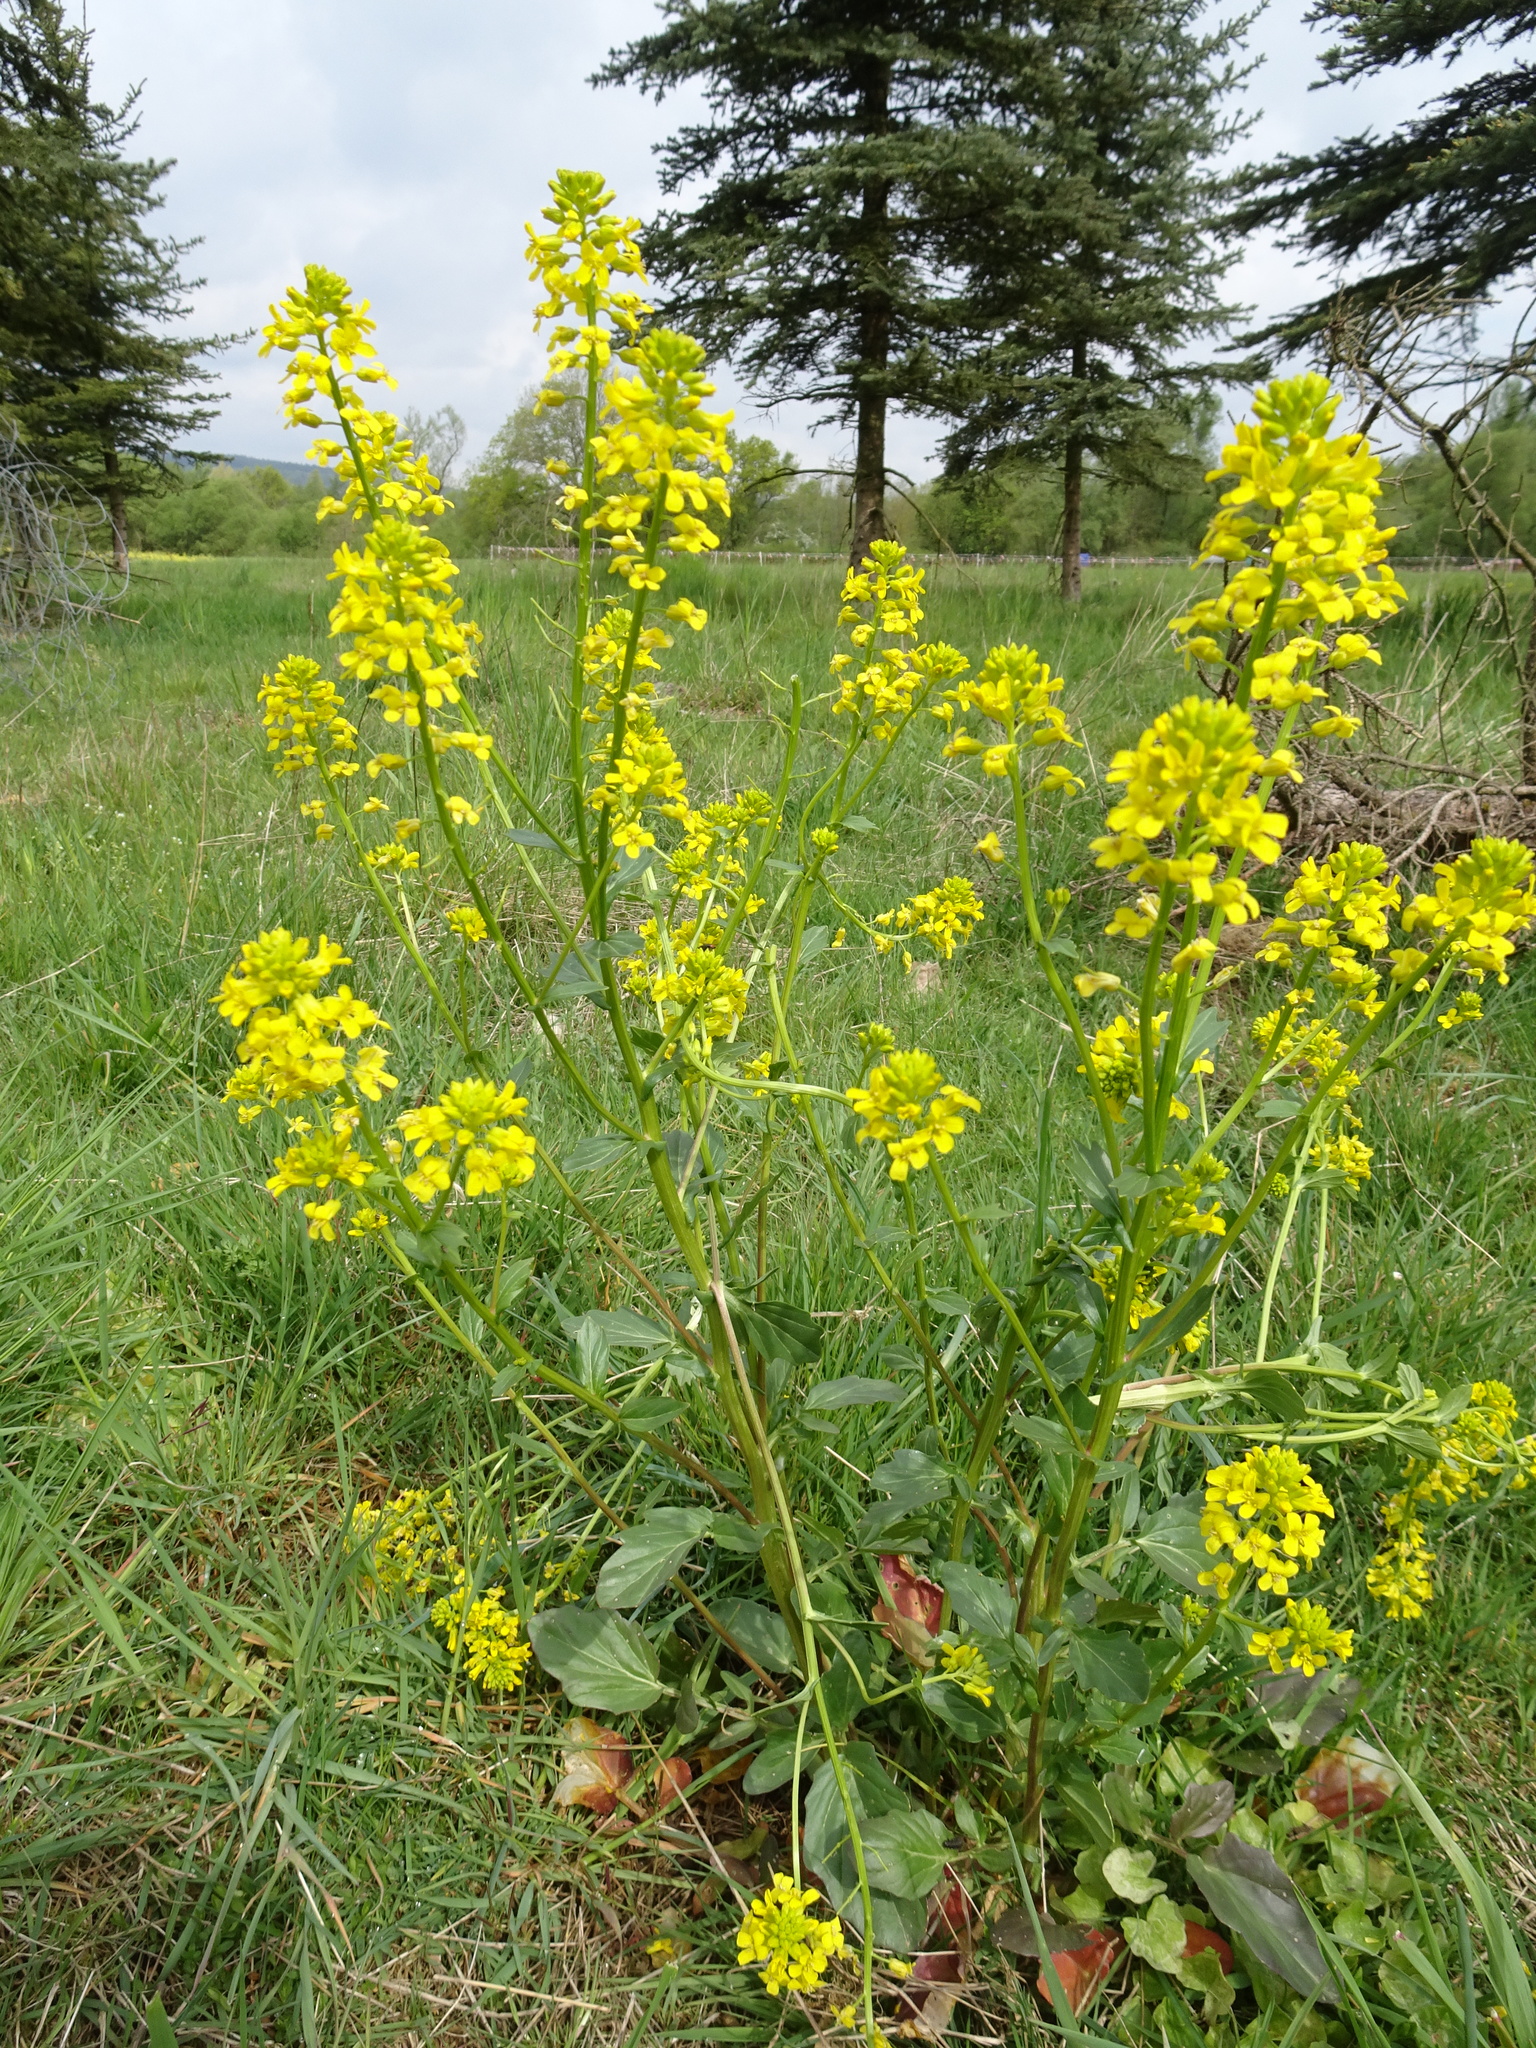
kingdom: Plantae
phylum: Tracheophyta
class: Magnoliopsida
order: Brassicales
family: Brassicaceae
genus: Barbarea
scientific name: Barbarea vulgaris
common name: Cressy-greens
